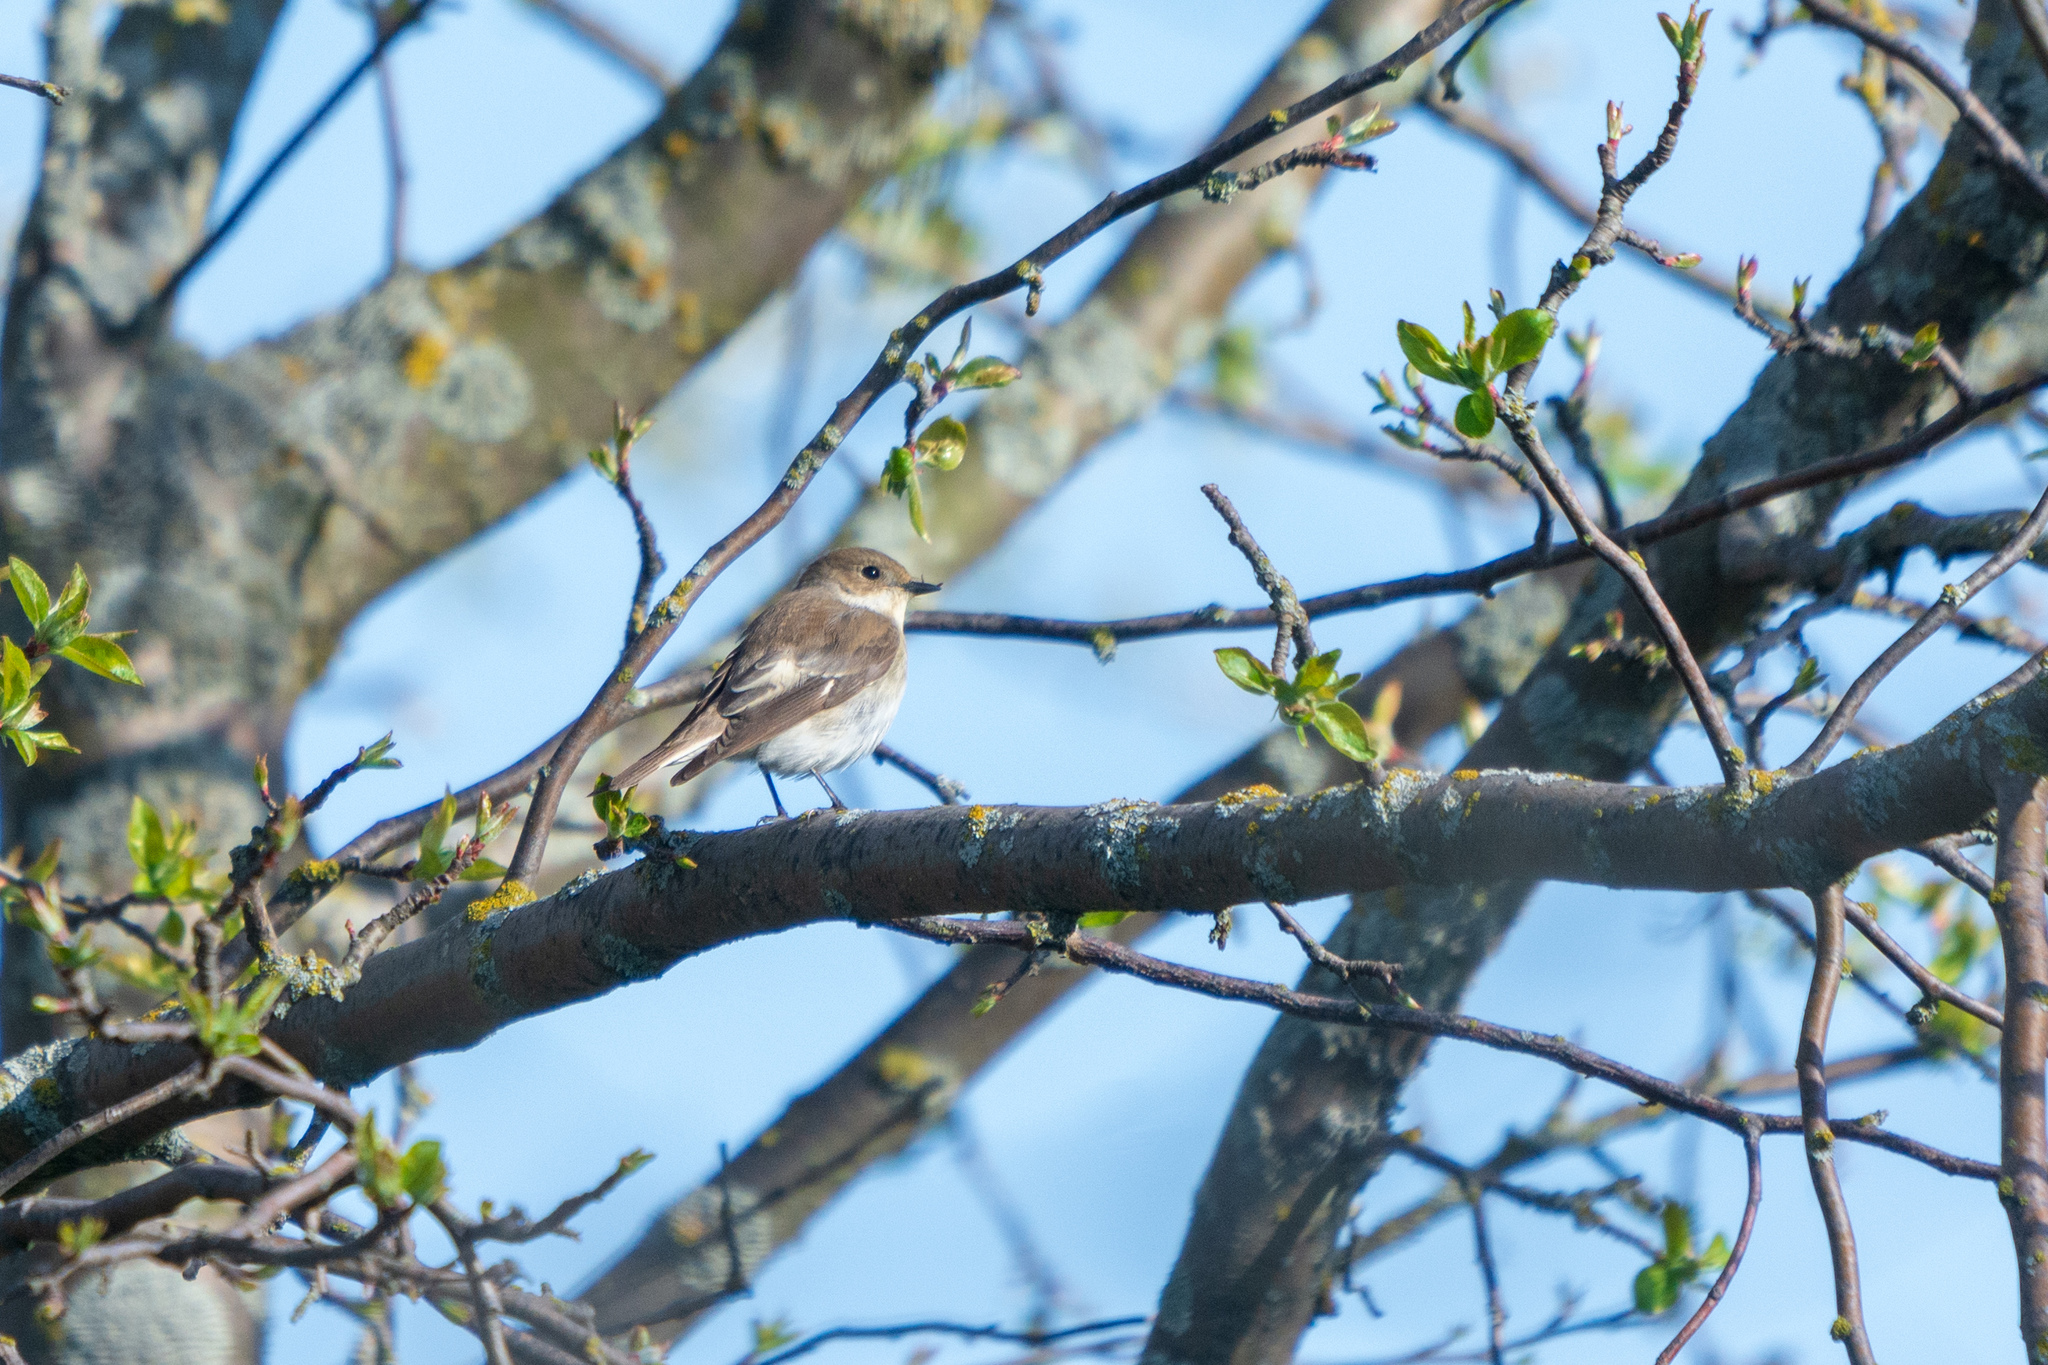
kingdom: Animalia
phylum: Chordata
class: Aves
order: Passeriformes
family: Muscicapidae
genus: Ficedula
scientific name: Ficedula albicollis
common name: Collared flycatcher
